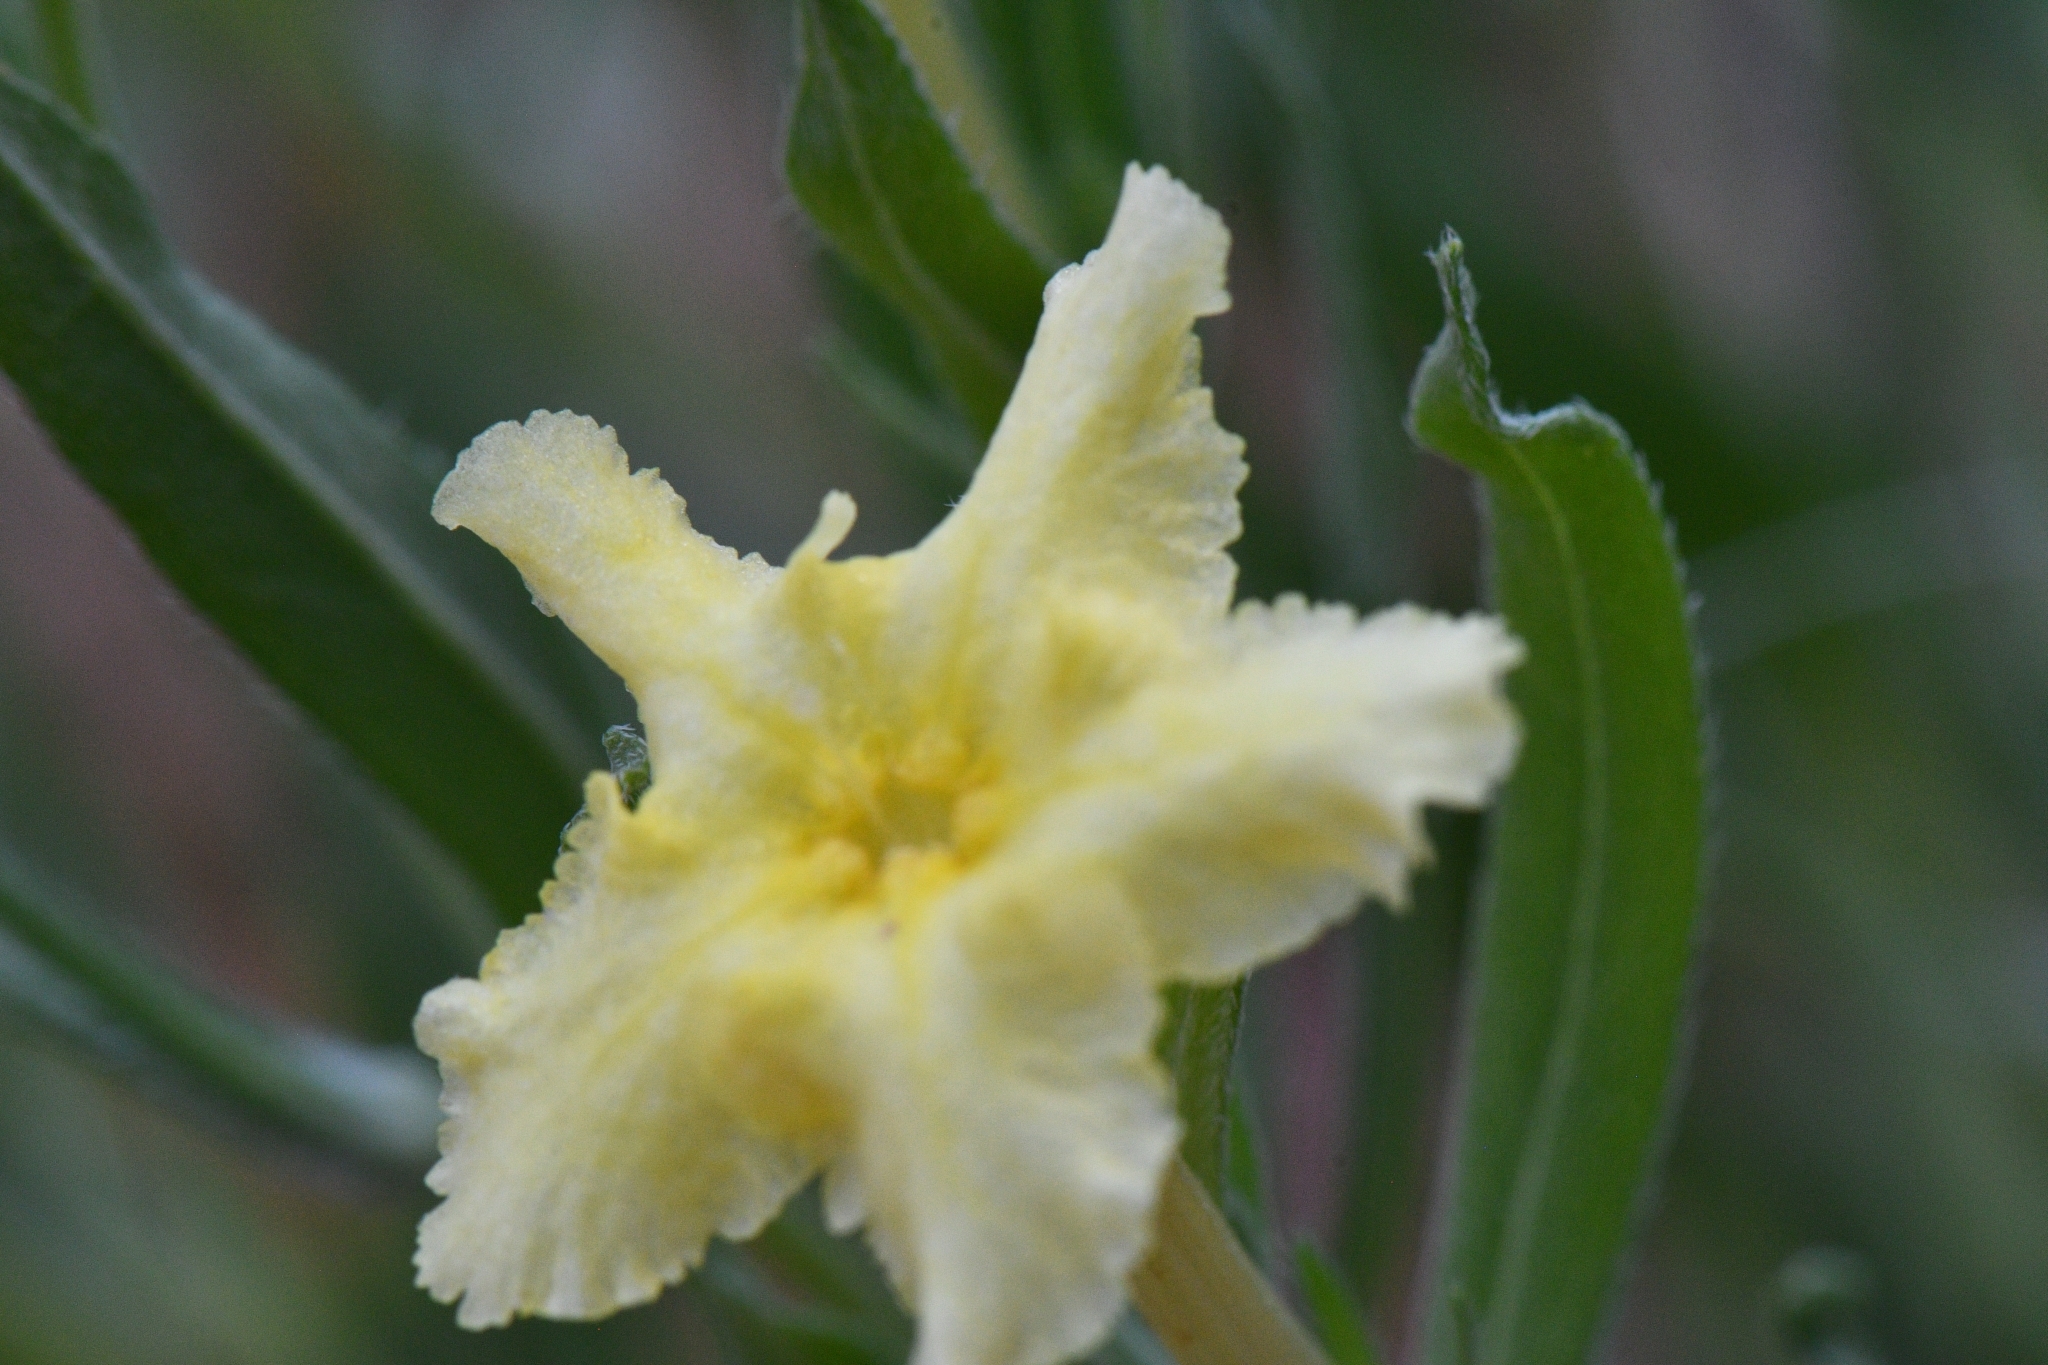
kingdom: Plantae
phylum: Tracheophyta
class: Magnoliopsida
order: Boraginales
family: Boraginaceae
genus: Lithospermum
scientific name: Lithospermum incisum
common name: Fringed gromwell
